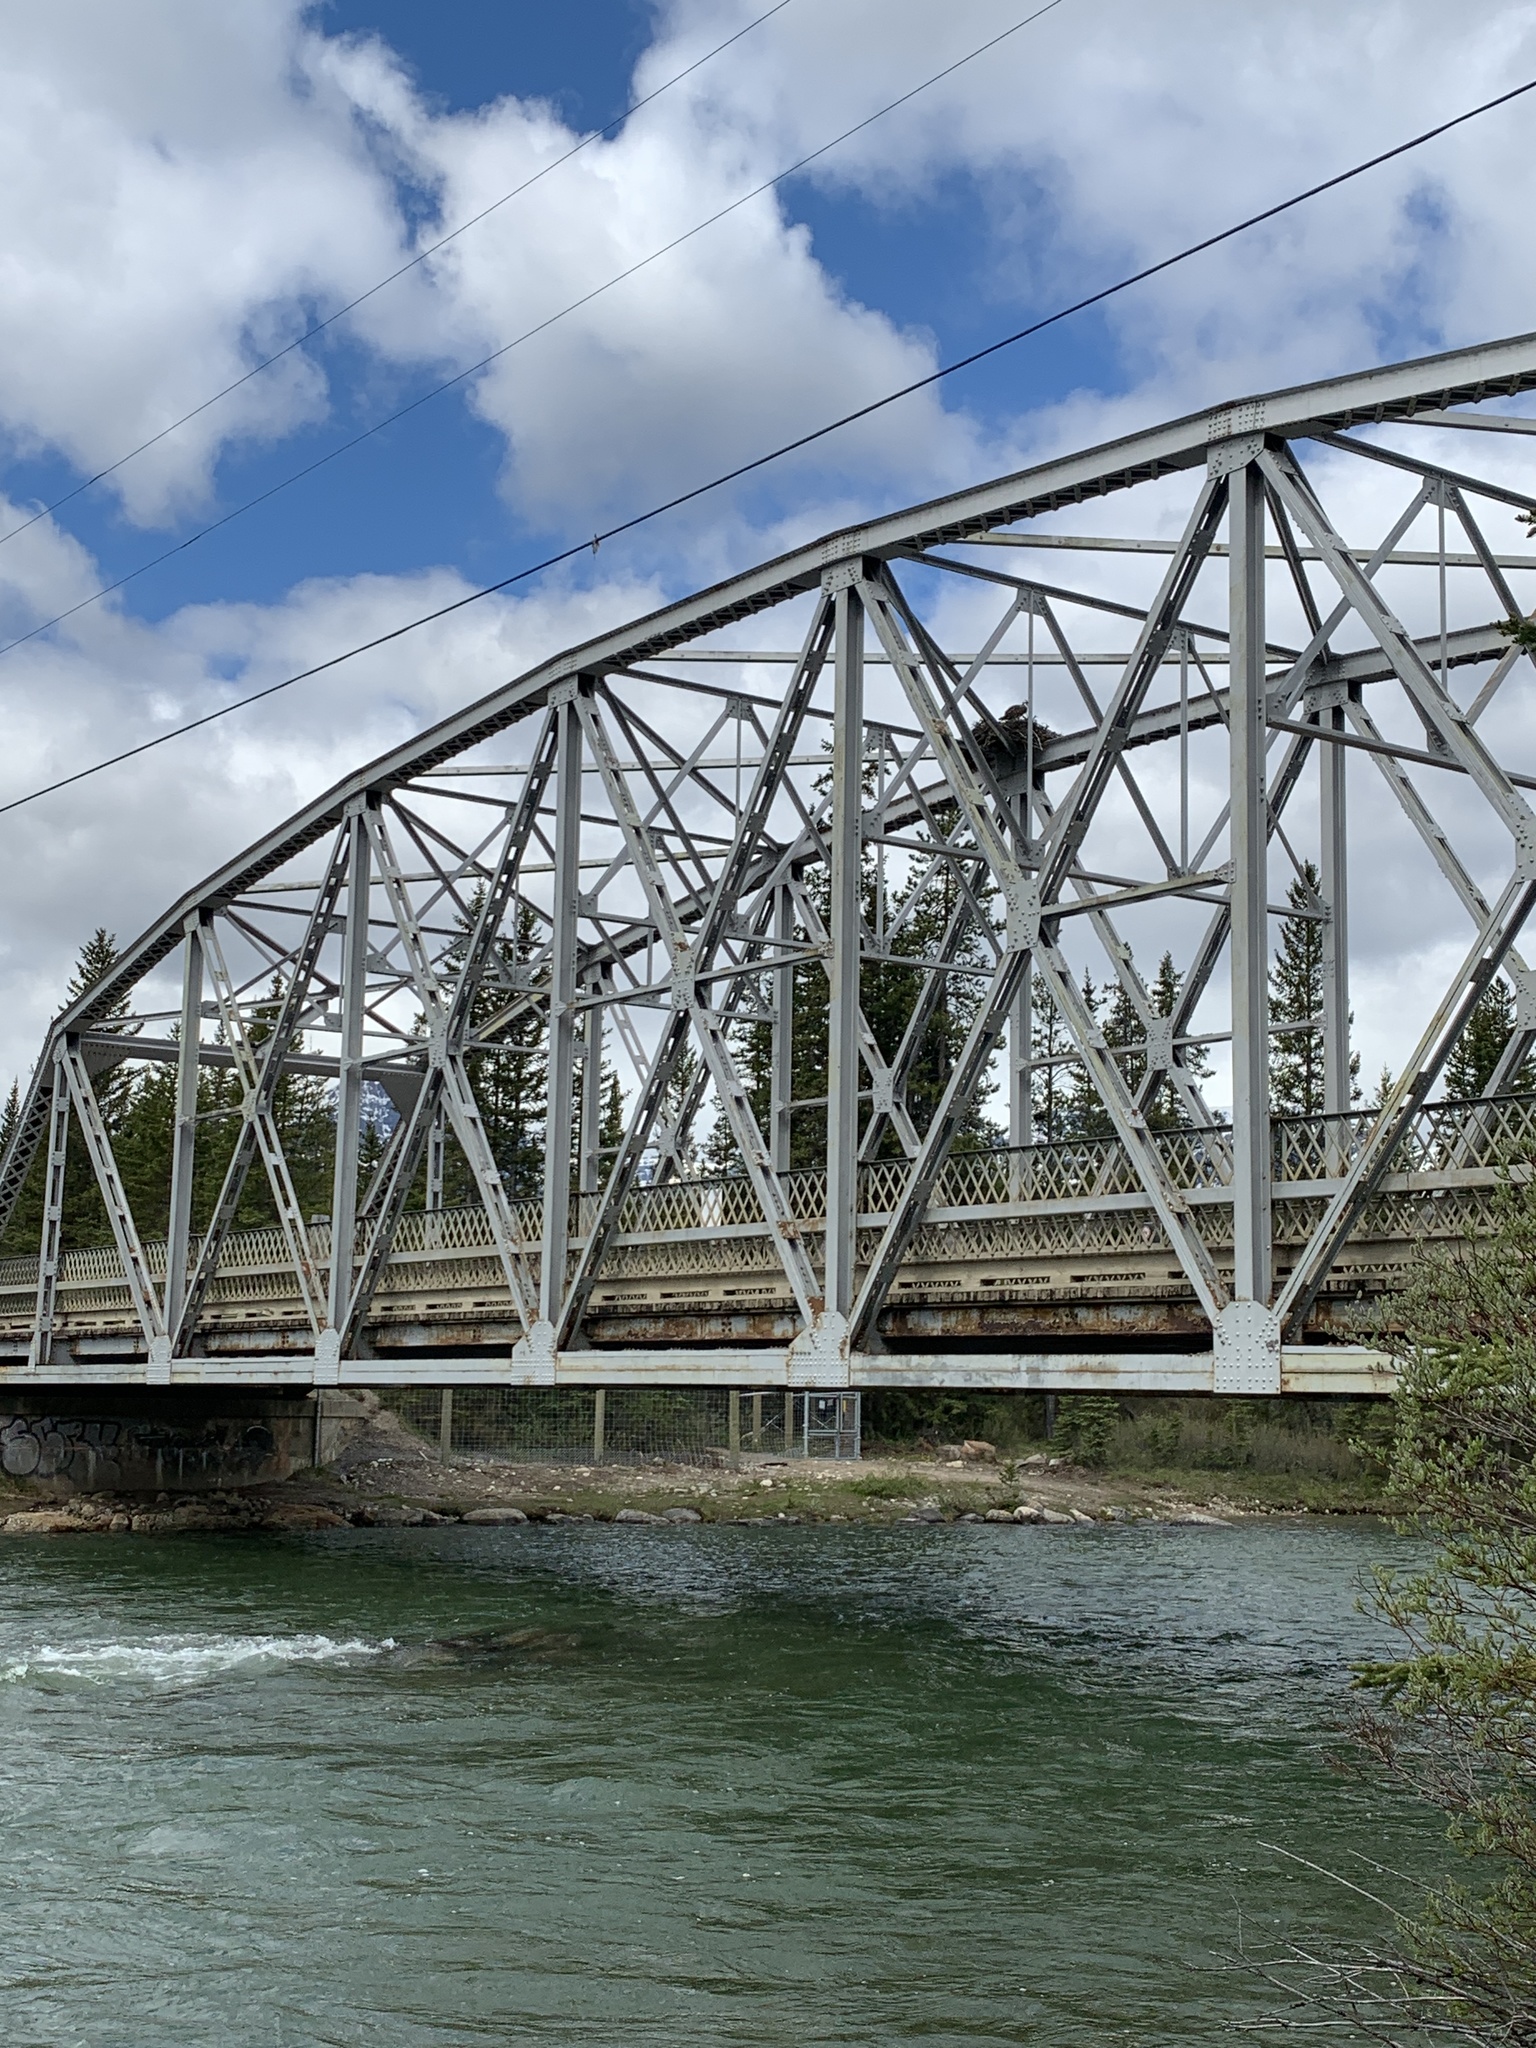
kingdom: Animalia
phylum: Chordata
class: Aves
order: Accipitriformes
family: Pandionidae
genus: Pandion
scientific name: Pandion haliaetus
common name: Osprey
